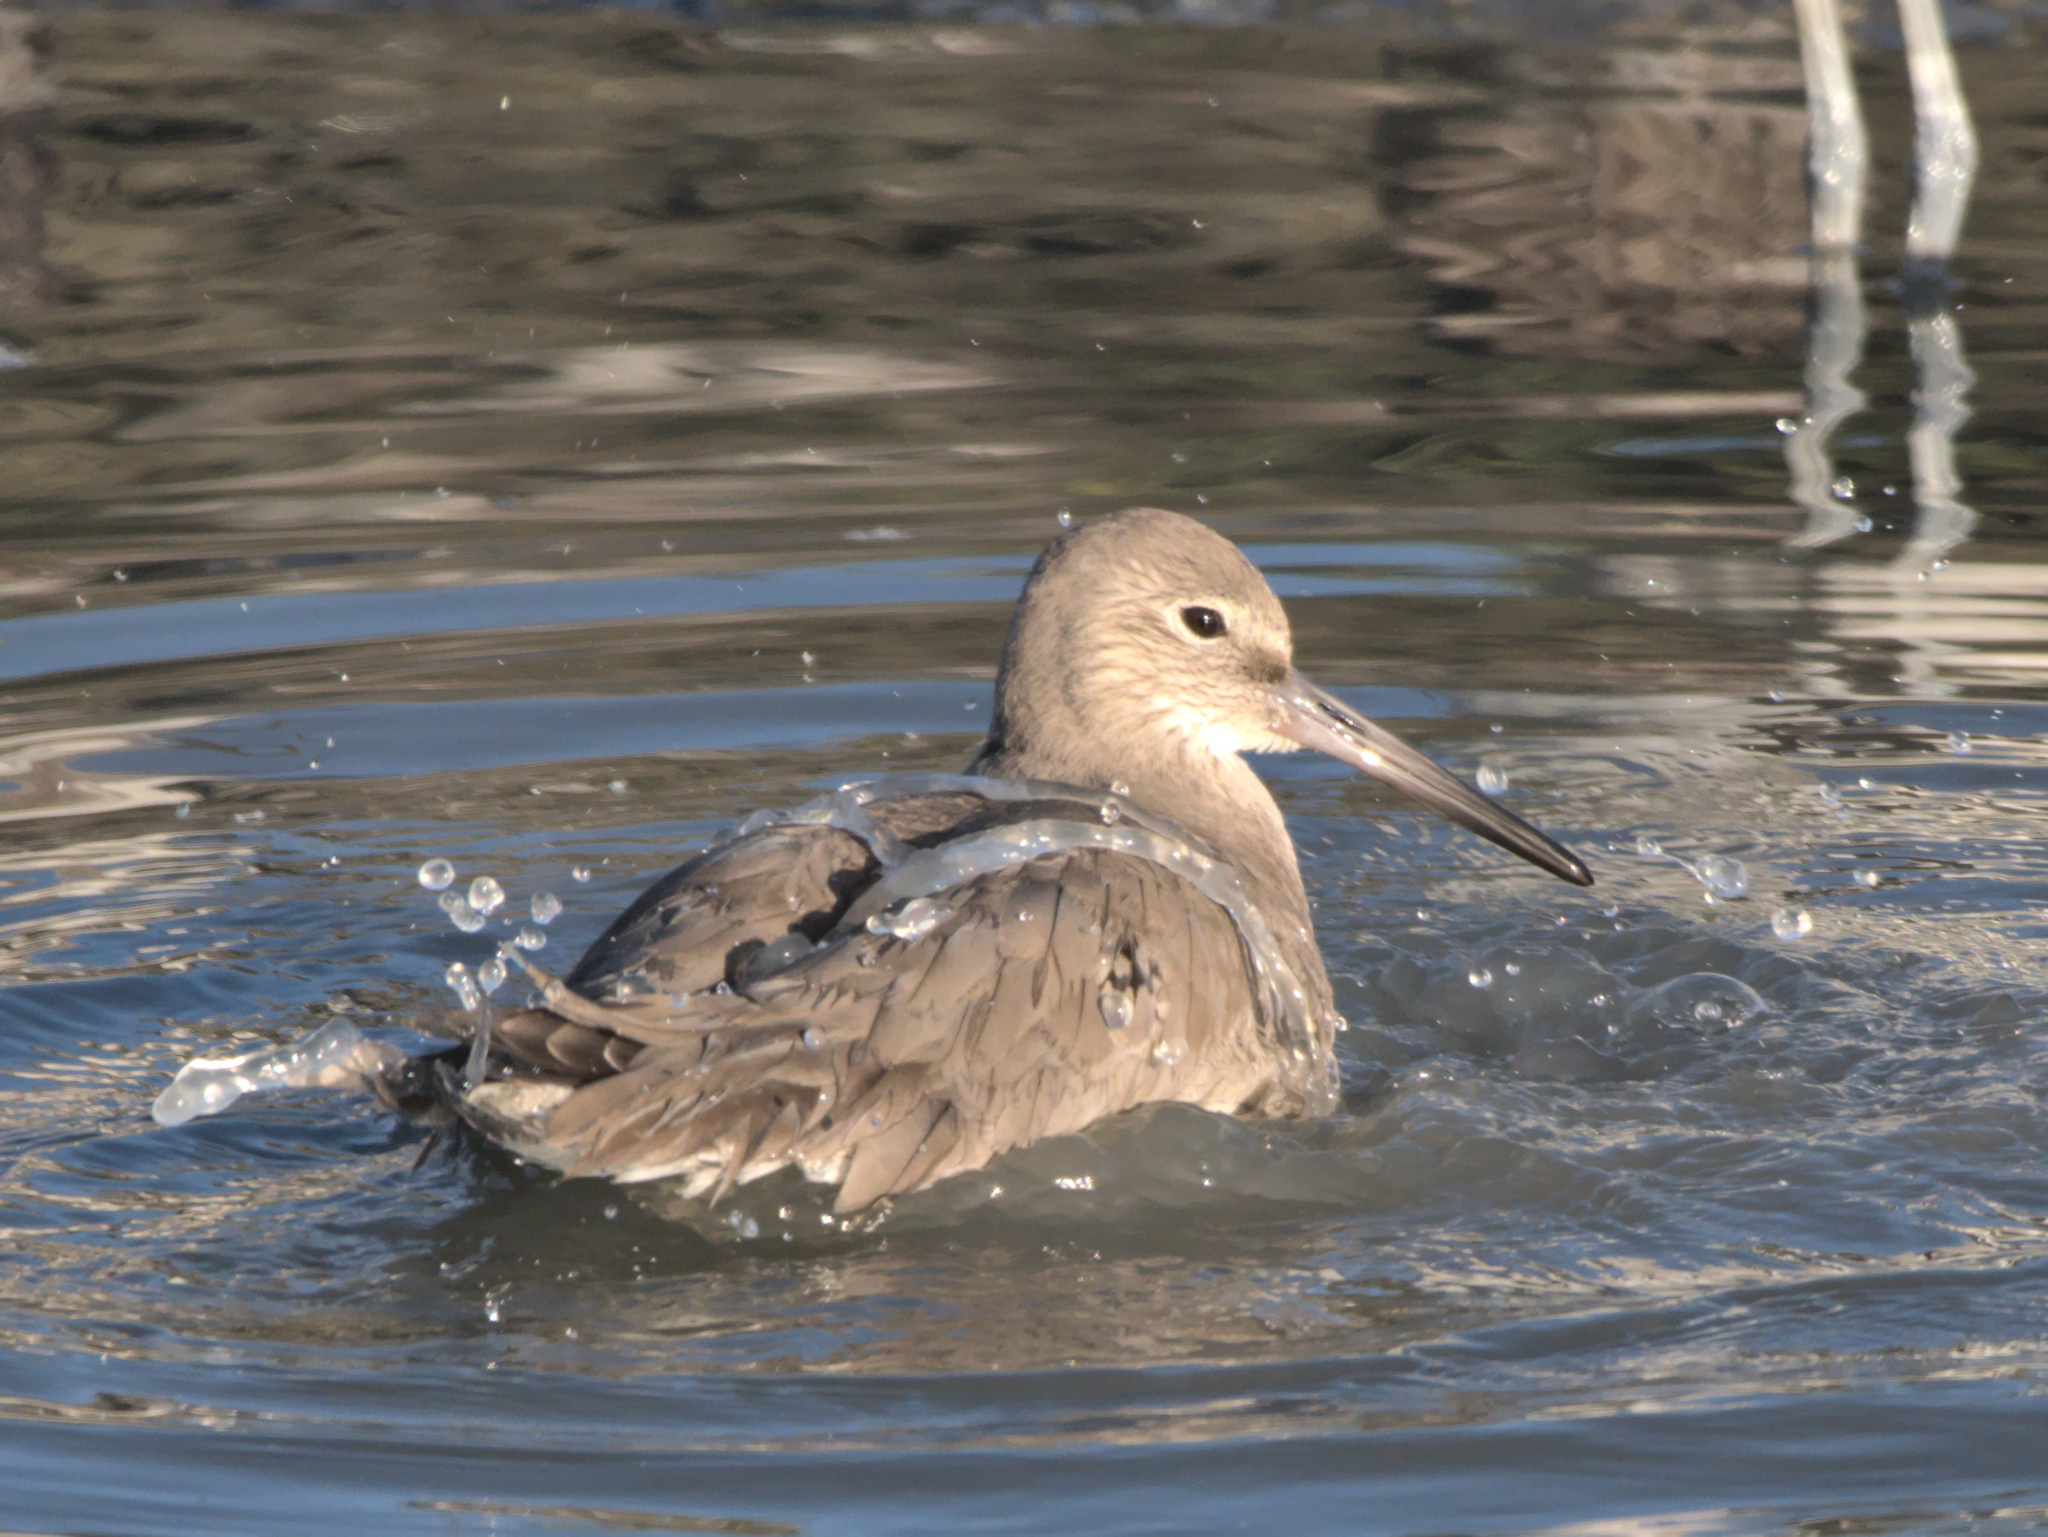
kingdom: Animalia
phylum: Chordata
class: Aves
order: Charadriiformes
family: Scolopacidae
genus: Tringa
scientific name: Tringa semipalmata
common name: Willet
